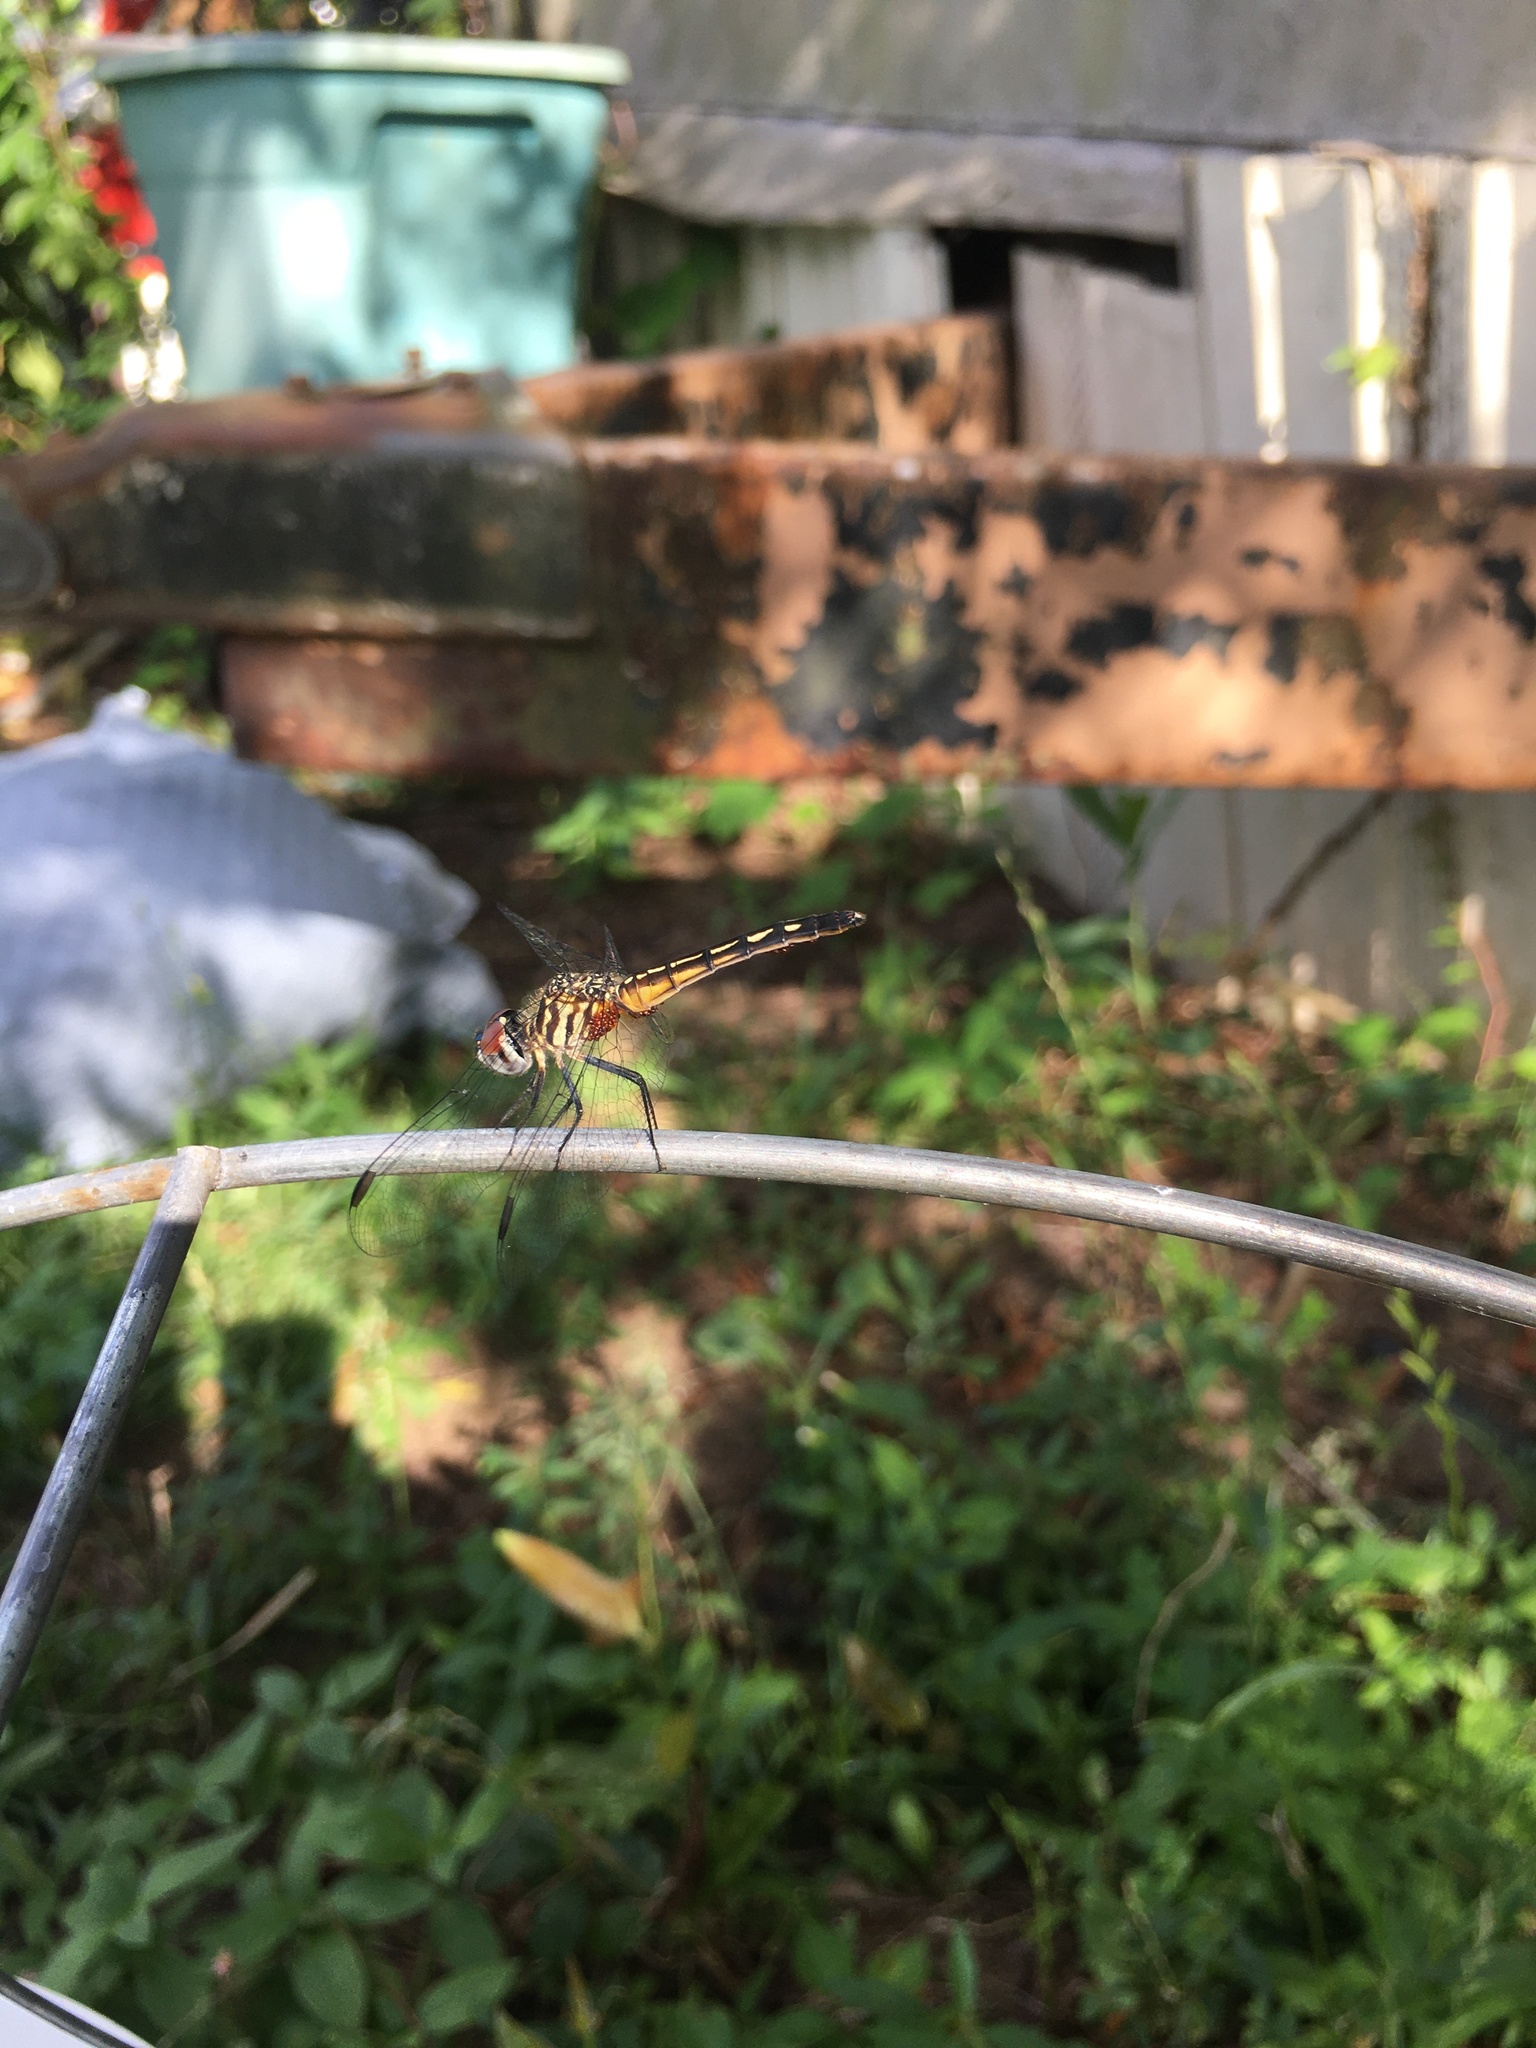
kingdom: Animalia
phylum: Arthropoda
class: Insecta
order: Odonata
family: Libellulidae
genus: Pachydiplax
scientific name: Pachydiplax longipennis
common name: Blue dasher
